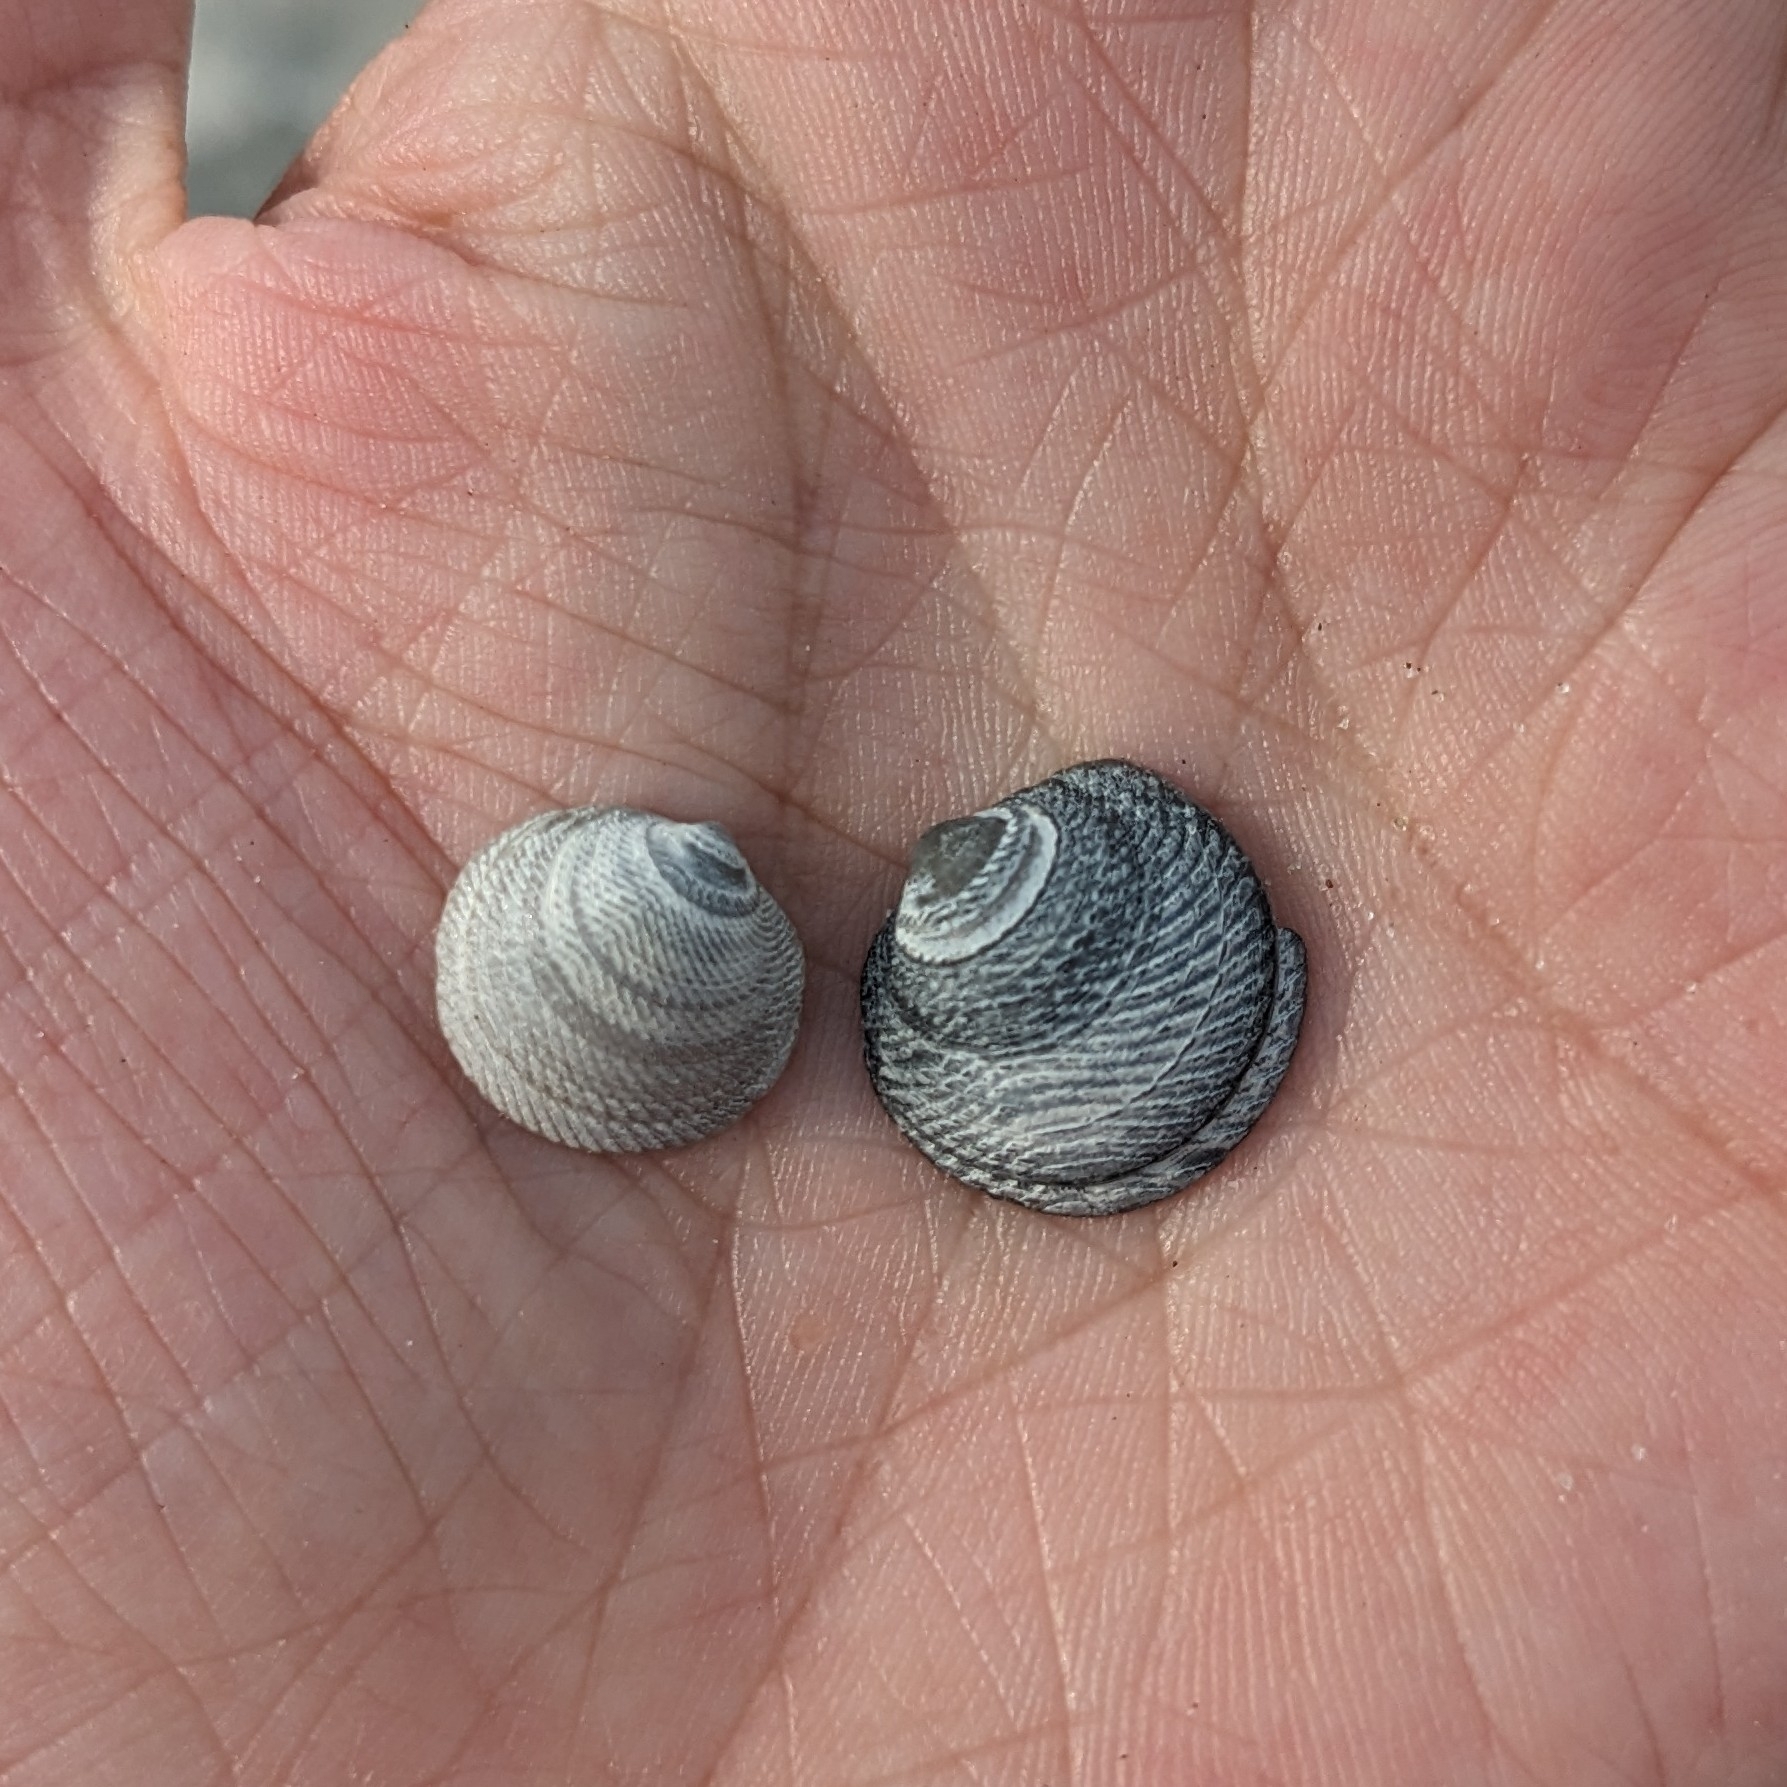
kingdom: Animalia
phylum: Mollusca
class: Bivalvia
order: Lucinida
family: Lucinidae
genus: Divalinga
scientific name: Divalinga quadrisulcata
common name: Cross-hatched lucine
